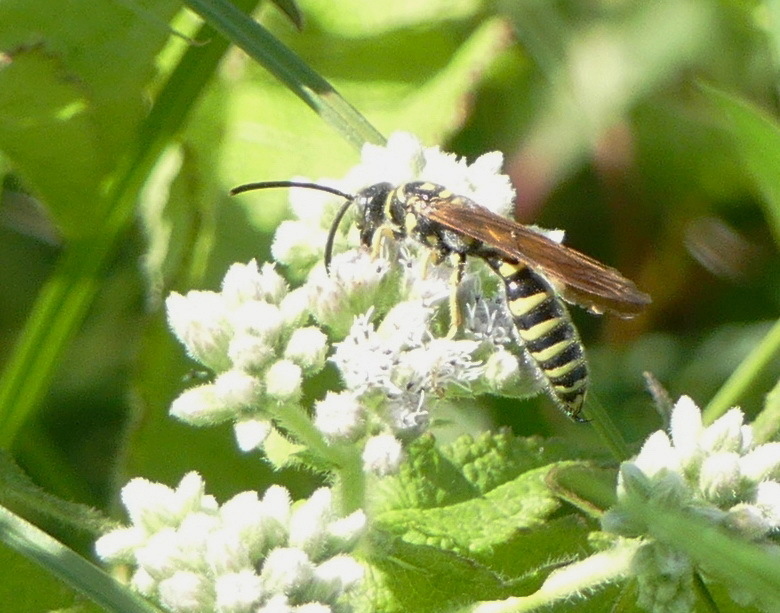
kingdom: Animalia
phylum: Arthropoda
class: Insecta
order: Hymenoptera
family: Tiphiidae
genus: Myzinum
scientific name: Myzinum quinquecinctum
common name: Five-banded thynnid wasp
